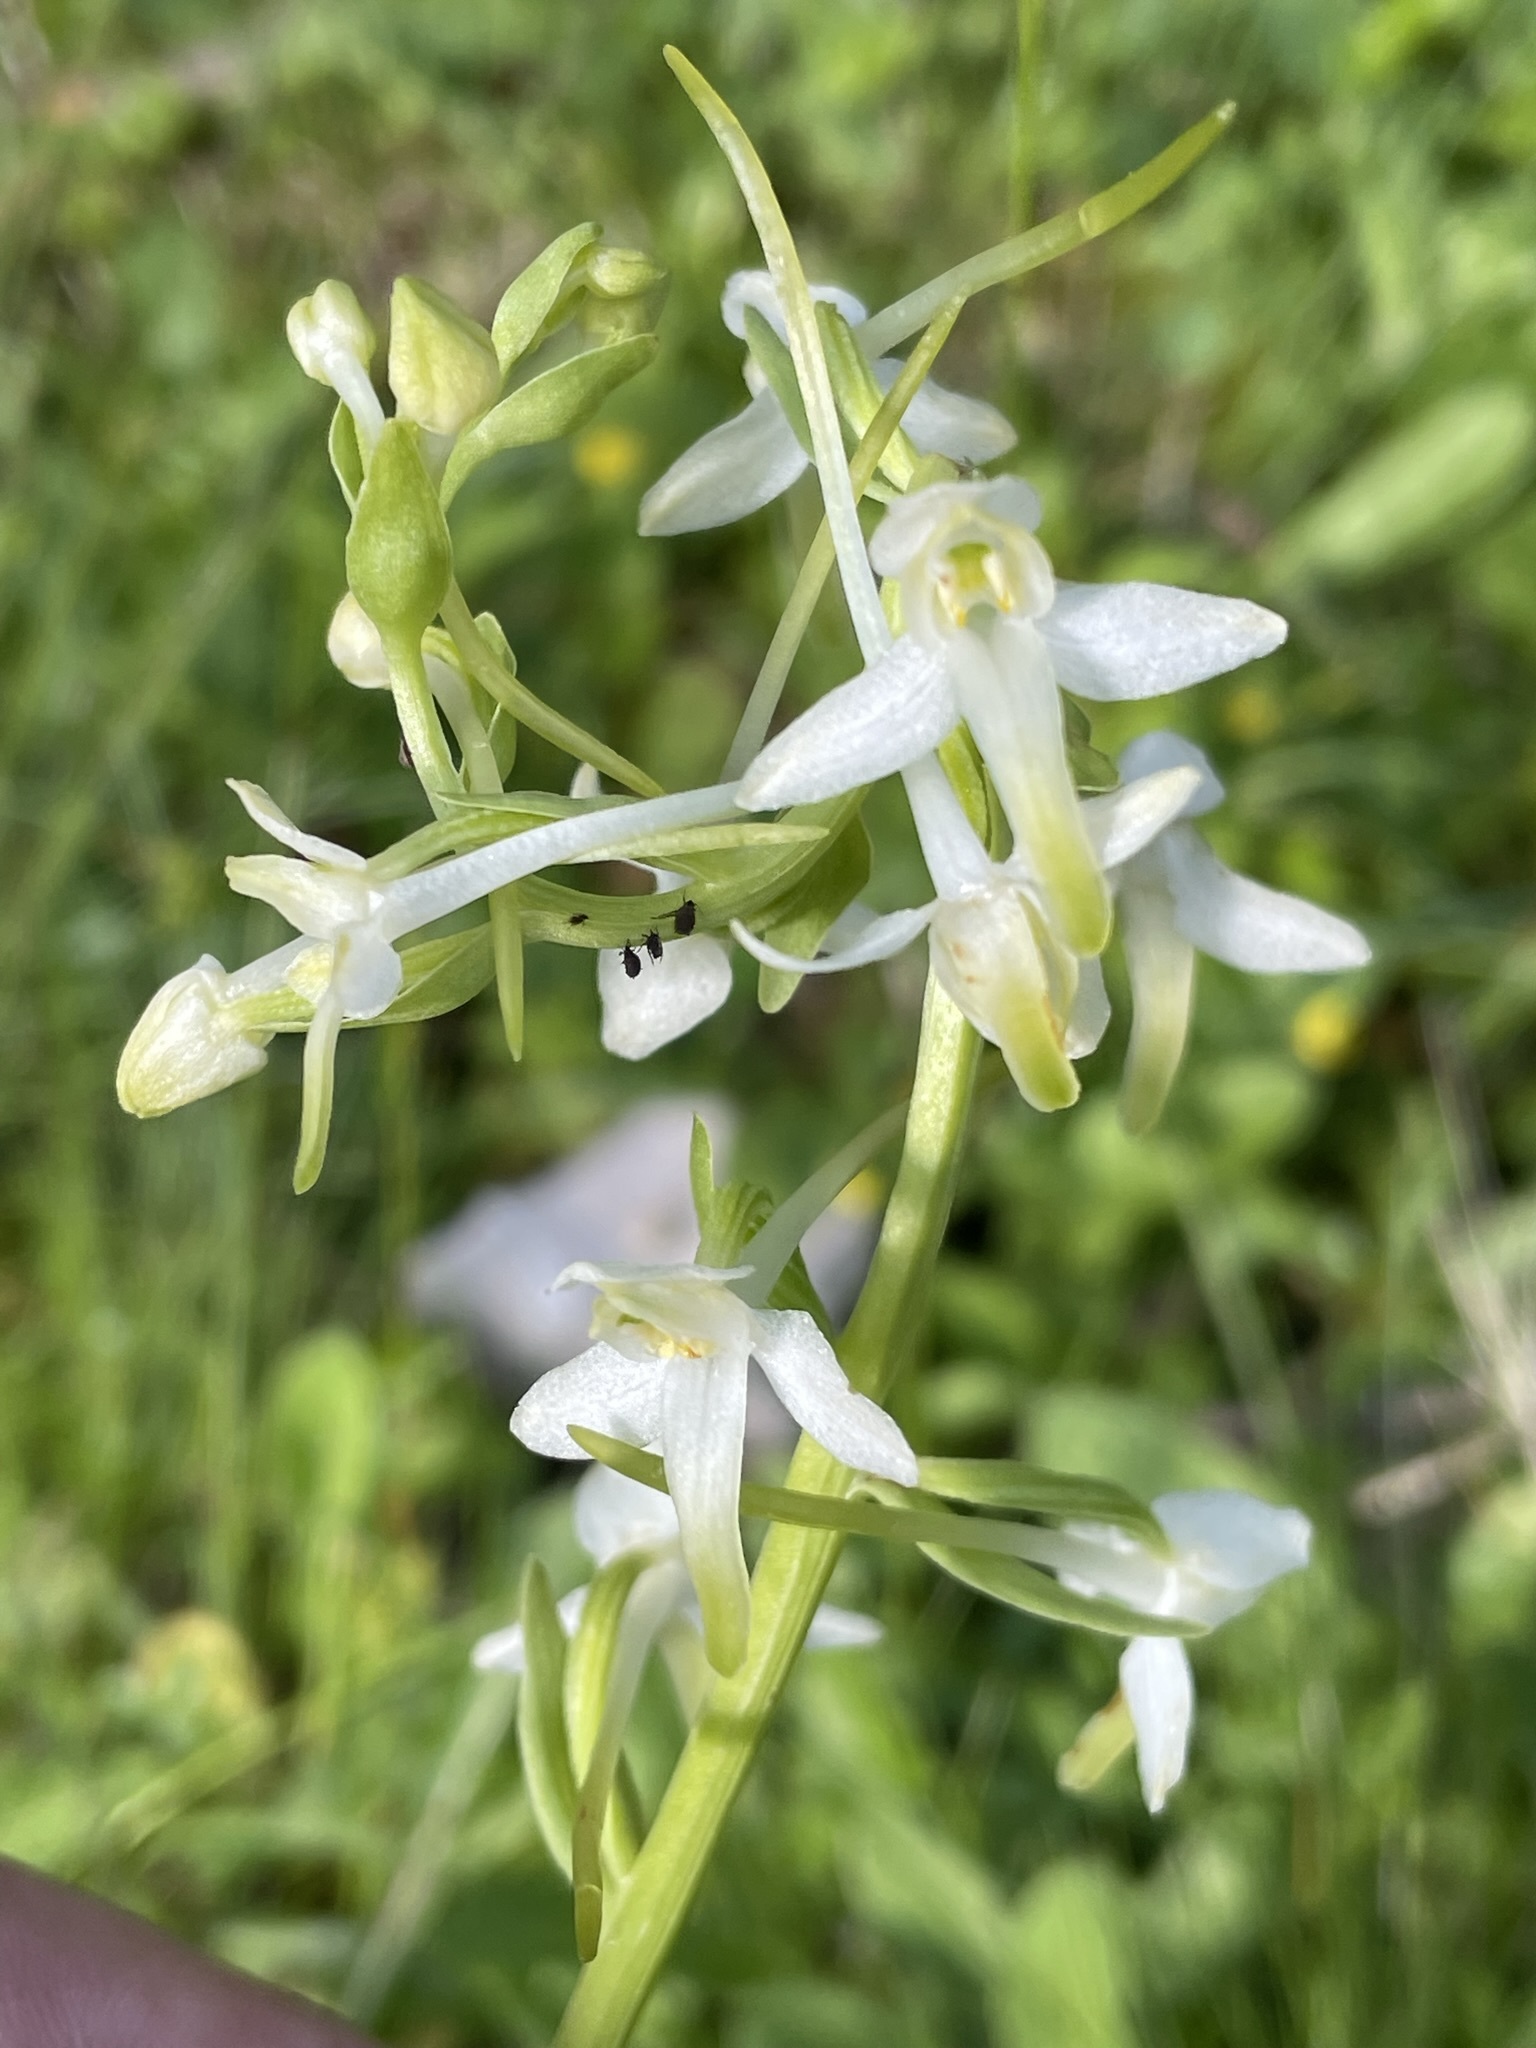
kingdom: Plantae
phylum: Tracheophyta
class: Liliopsida
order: Asparagales
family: Orchidaceae
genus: Platanthera
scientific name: Platanthera bifolia
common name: Lesser butterfly-orchid
